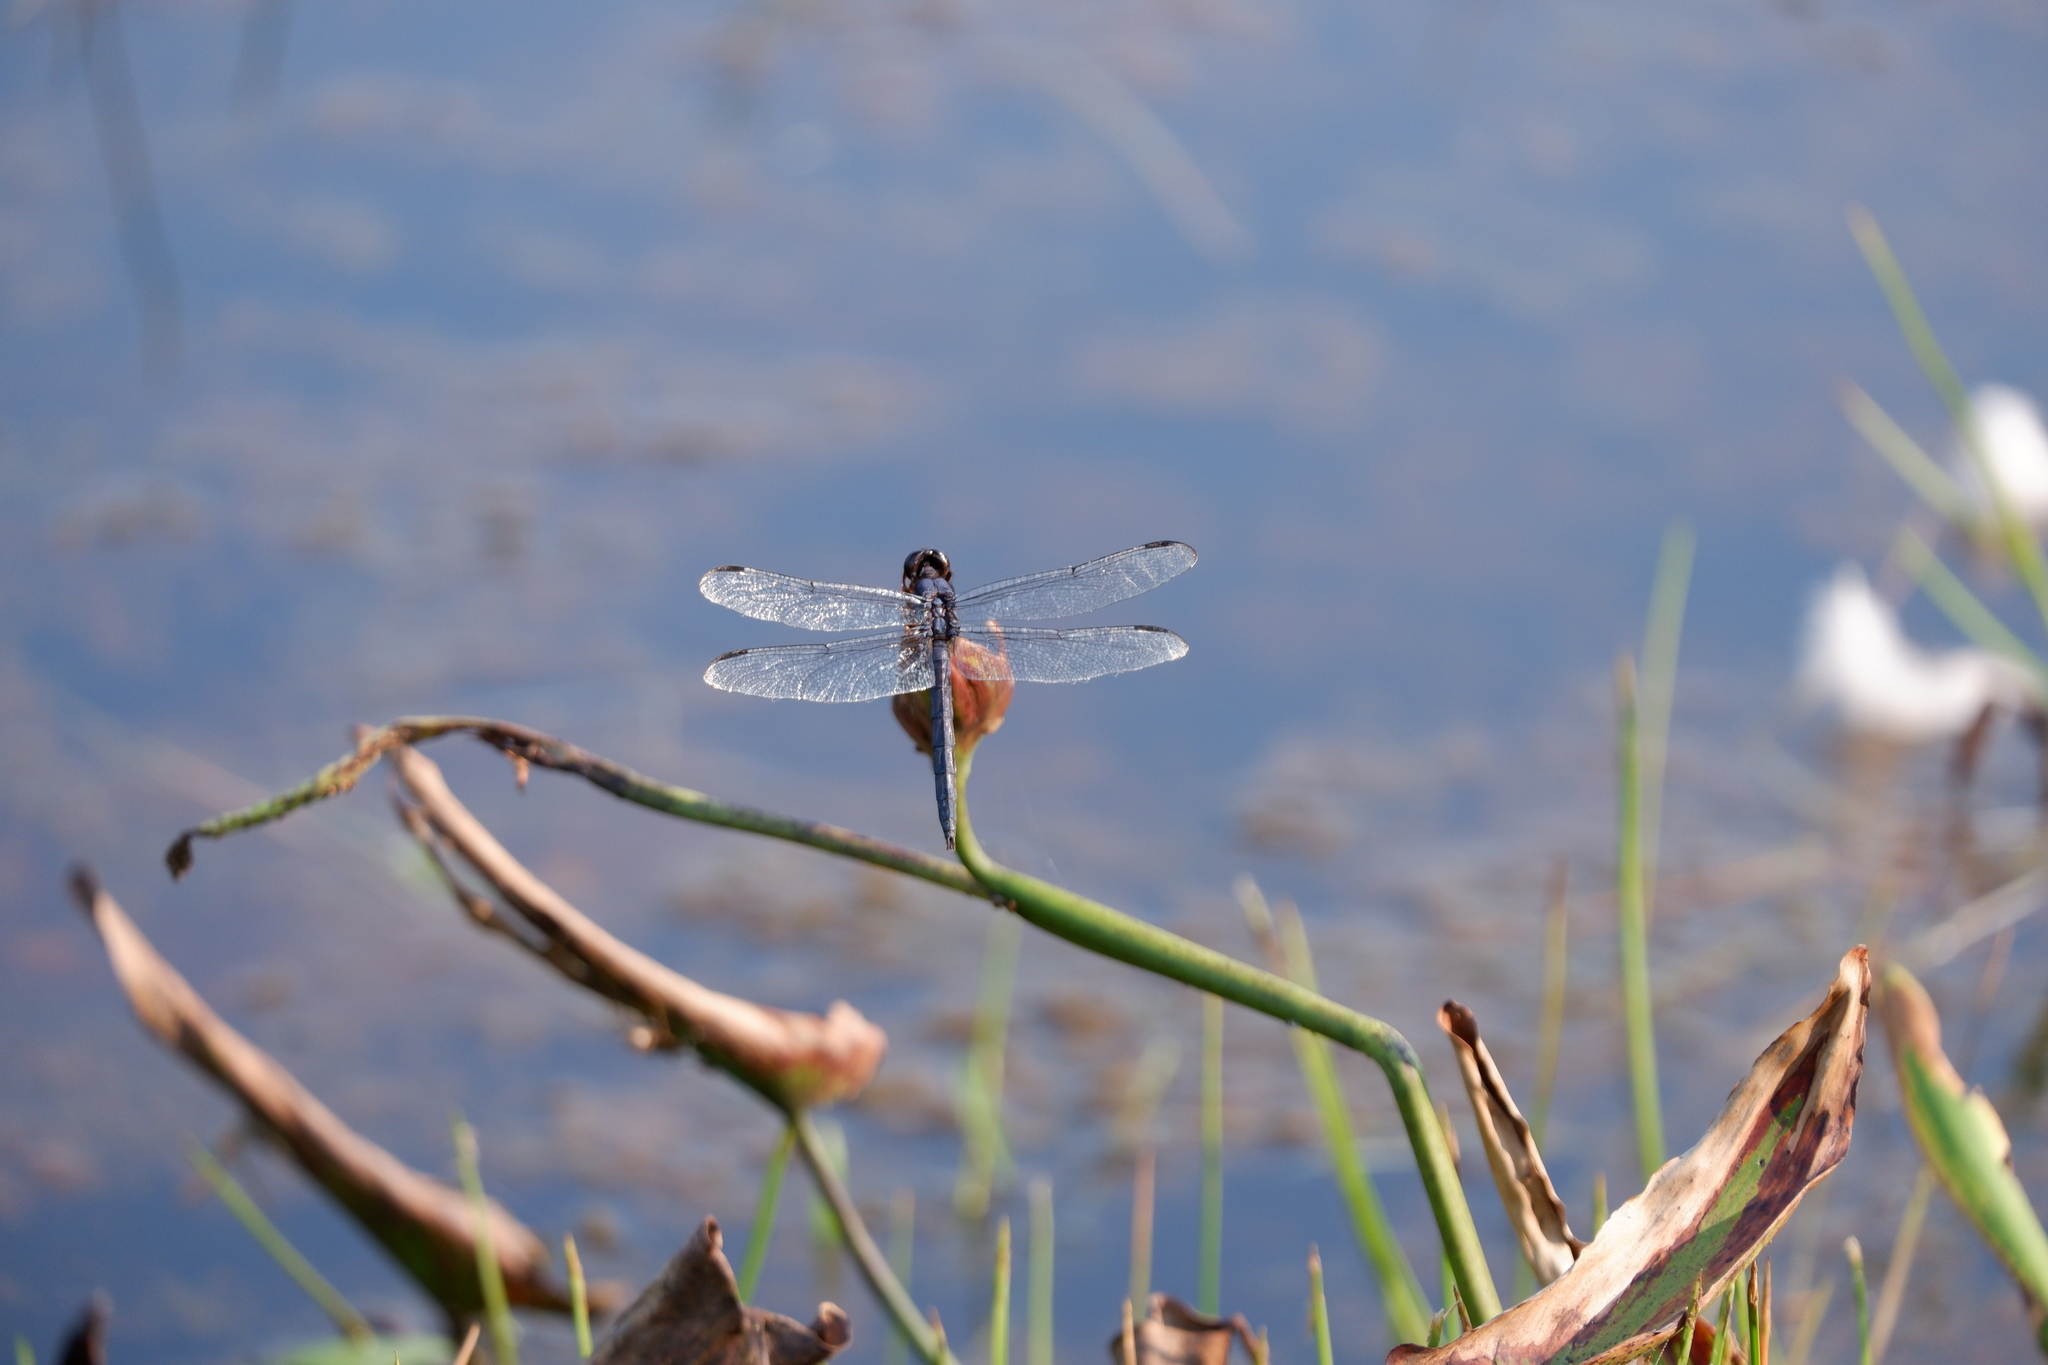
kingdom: Animalia
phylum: Arthropoda
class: Insecta
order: Odonata
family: Libellulidae
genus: Libellula
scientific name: Libellula incesta
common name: Slaty skimmer
